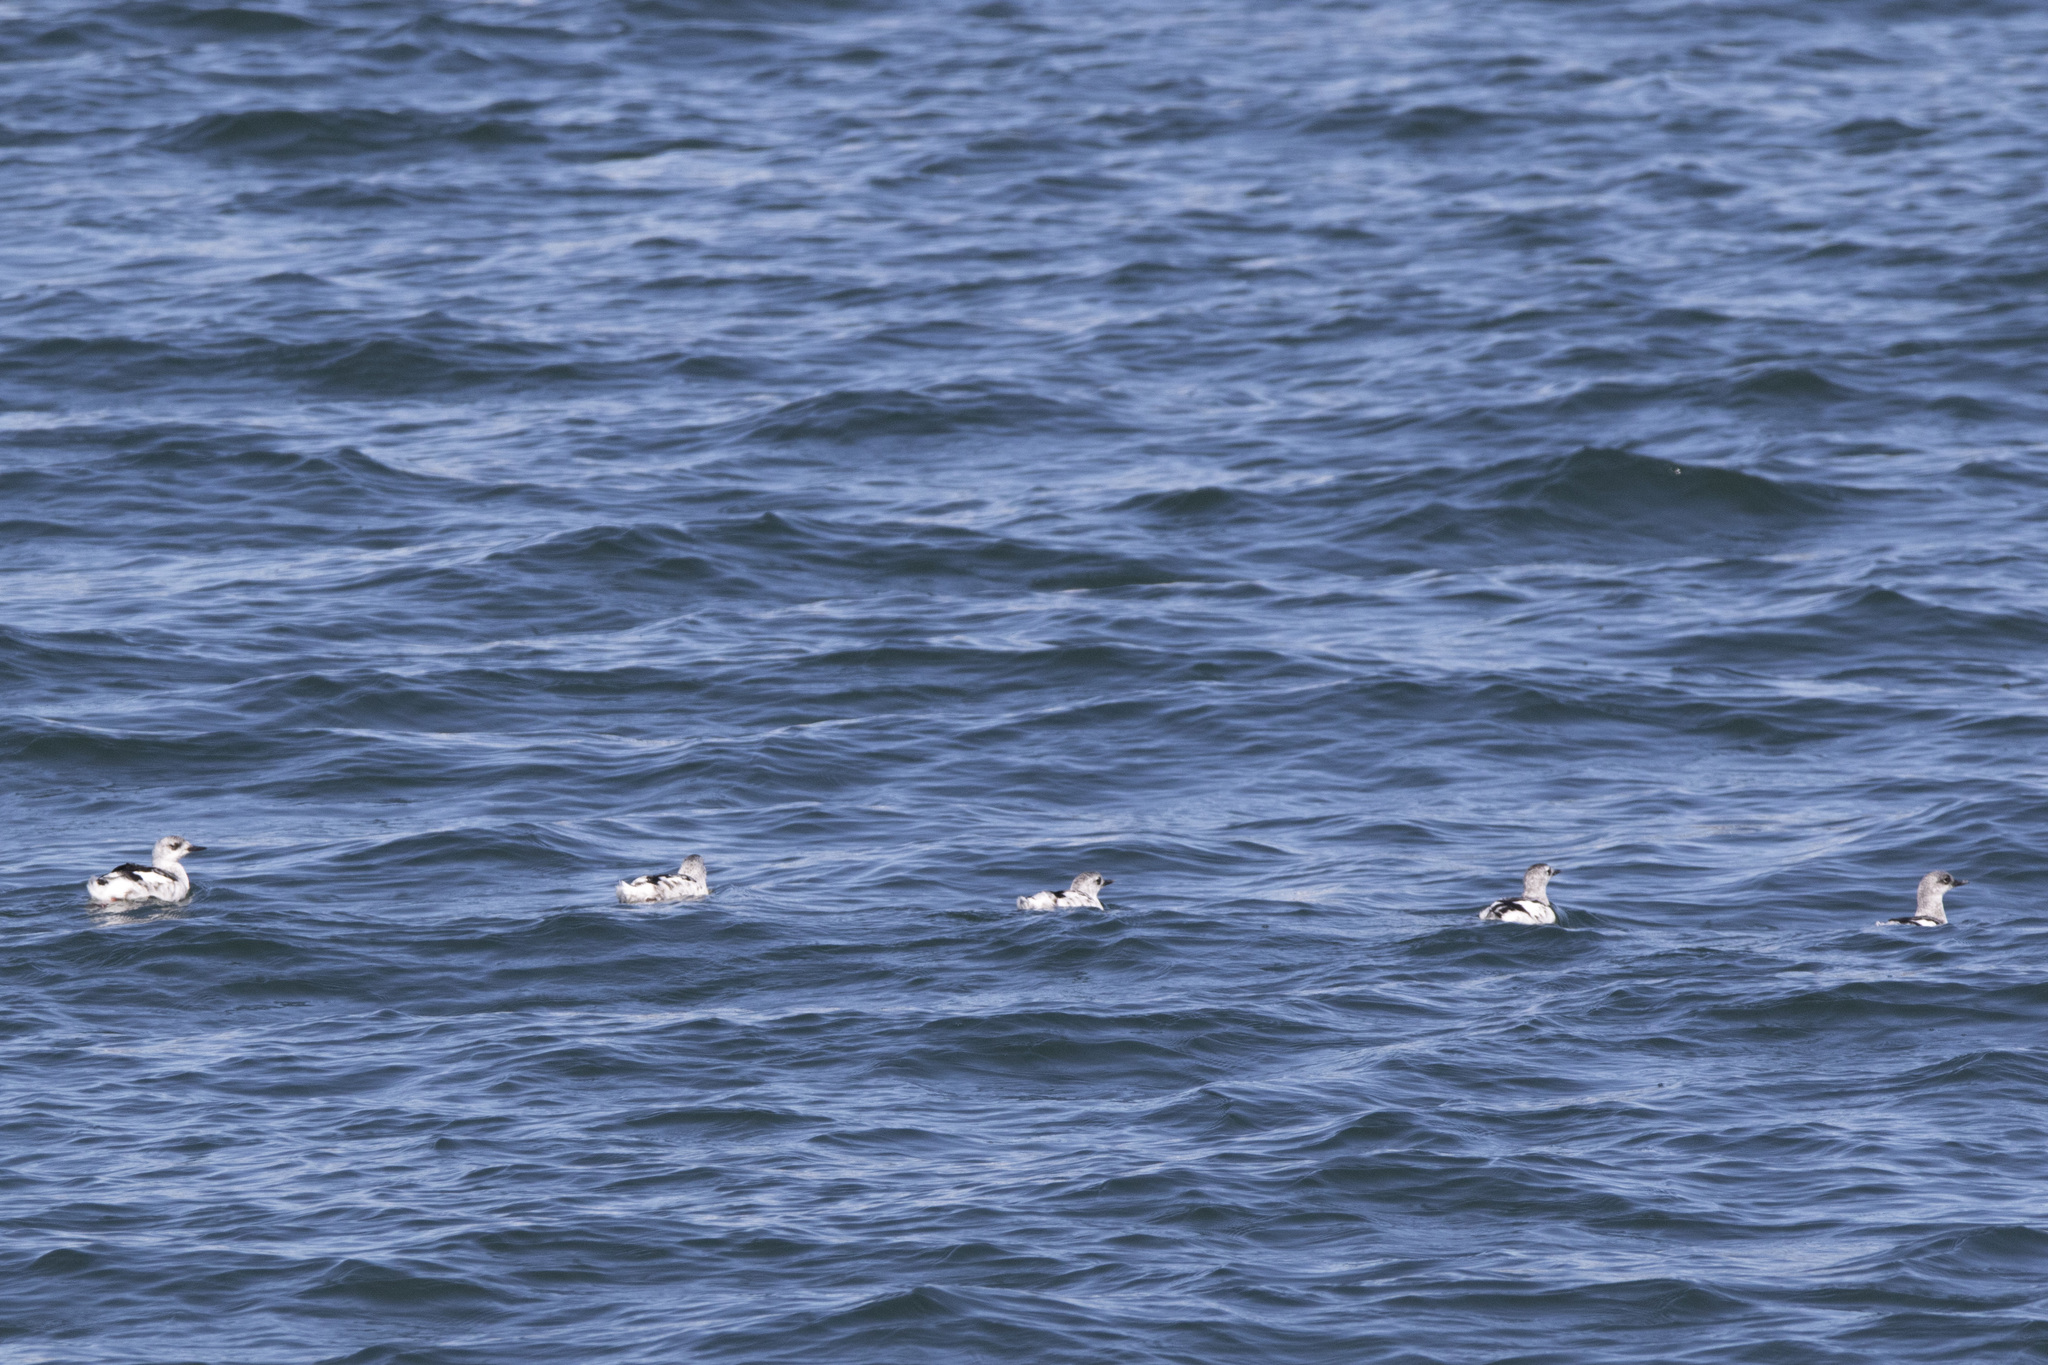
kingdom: Animalia
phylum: Chordata
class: Aves
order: Charadriiformes
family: Alcidae
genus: Cepphus
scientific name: Cepphus grylle
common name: Black guillemot
